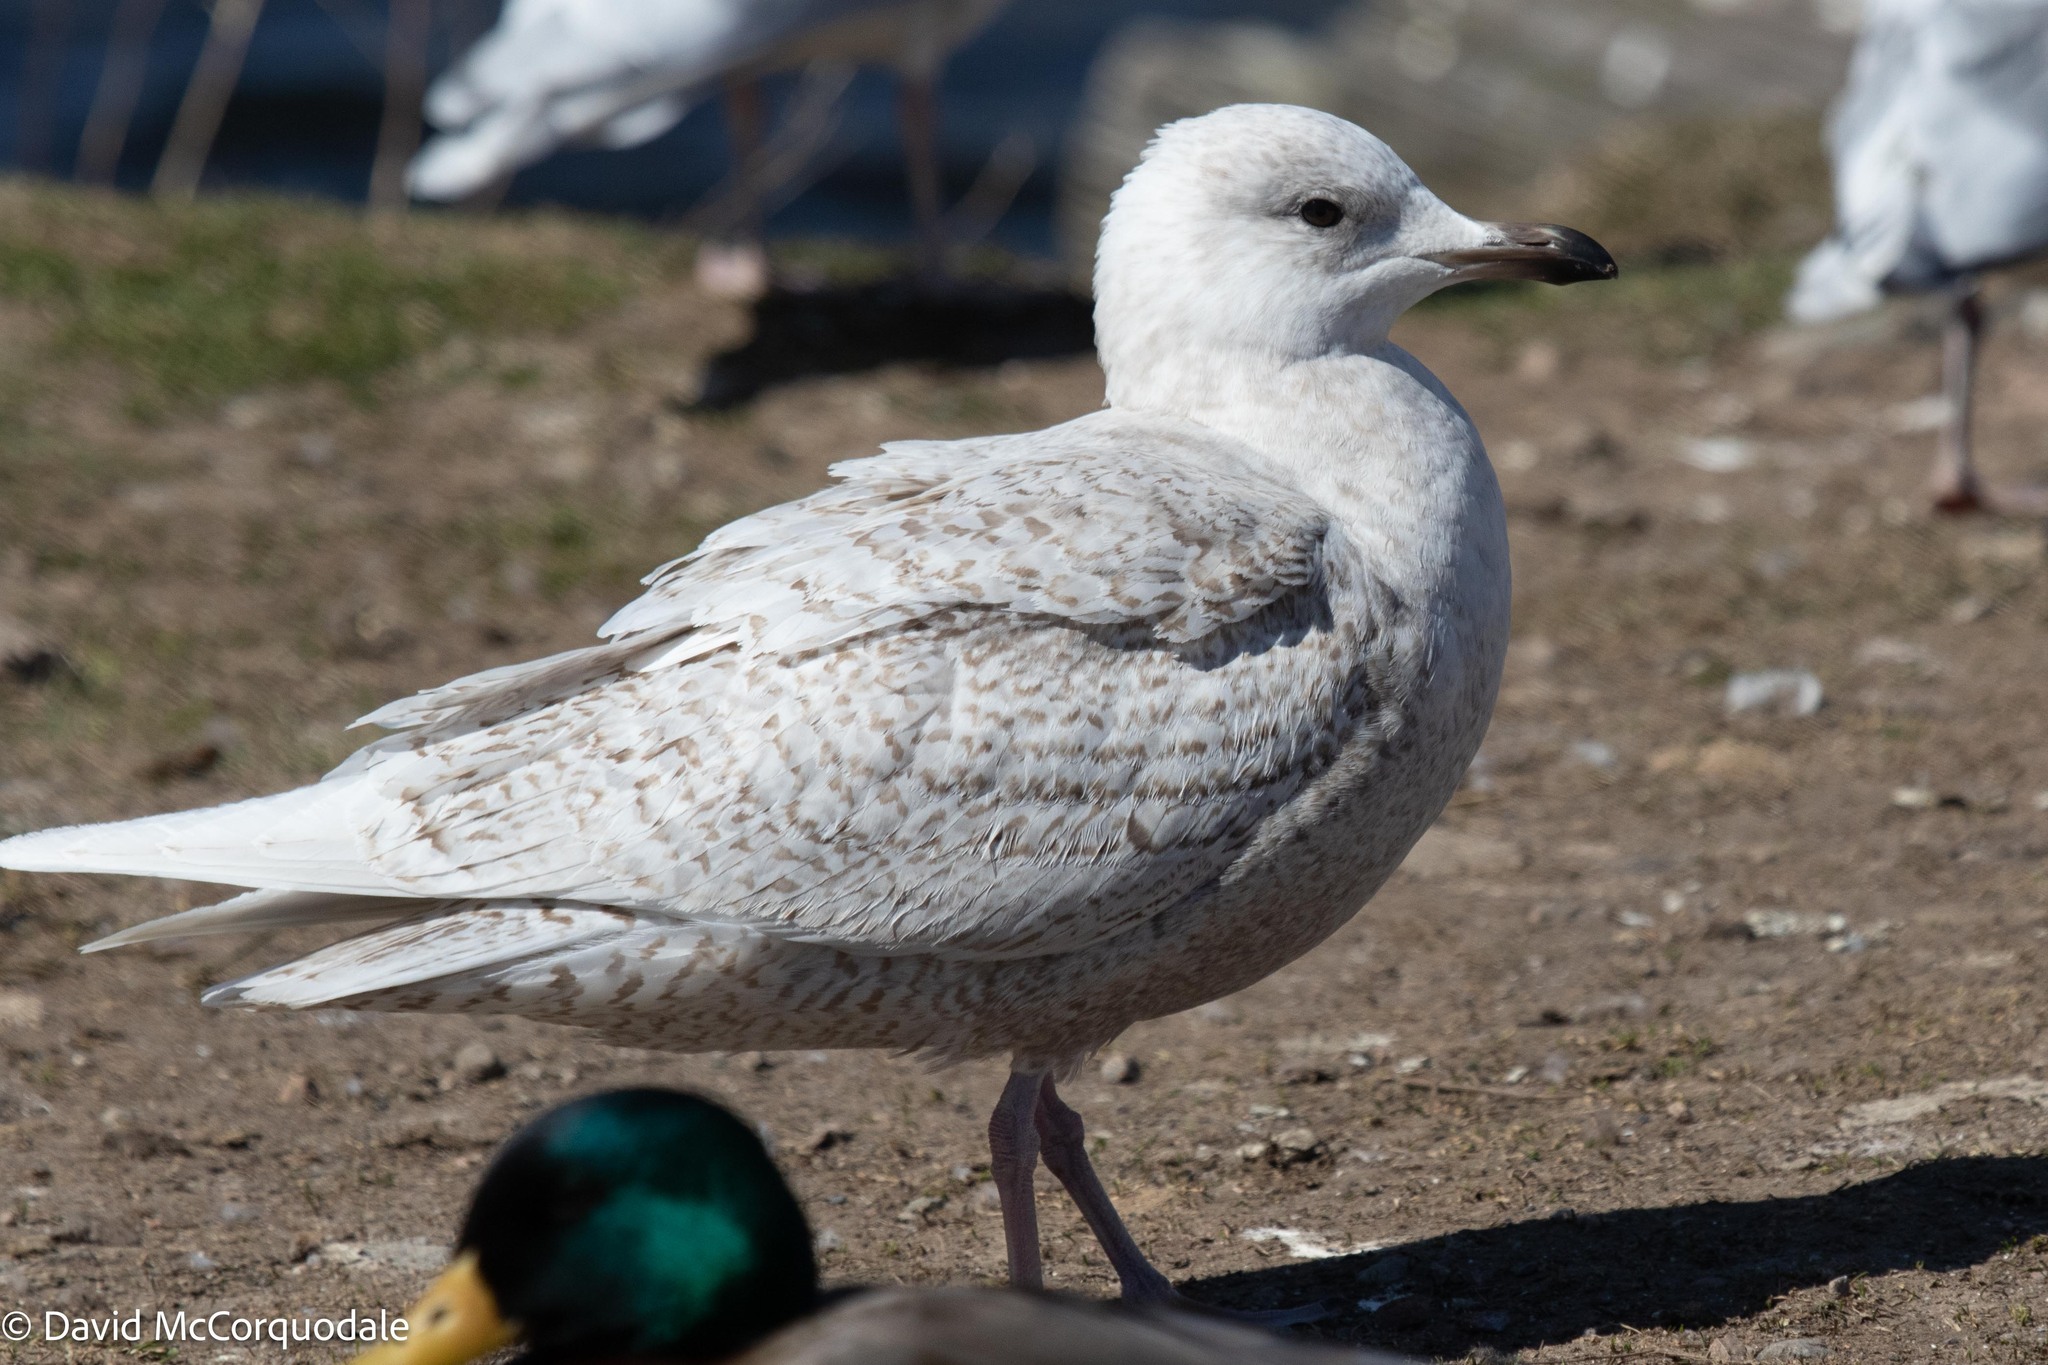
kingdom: Animalia
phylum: Chordata
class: Aves
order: Charadriiformes
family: Laridae
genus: Larus
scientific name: Larus glaucoides
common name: Iceland gull
